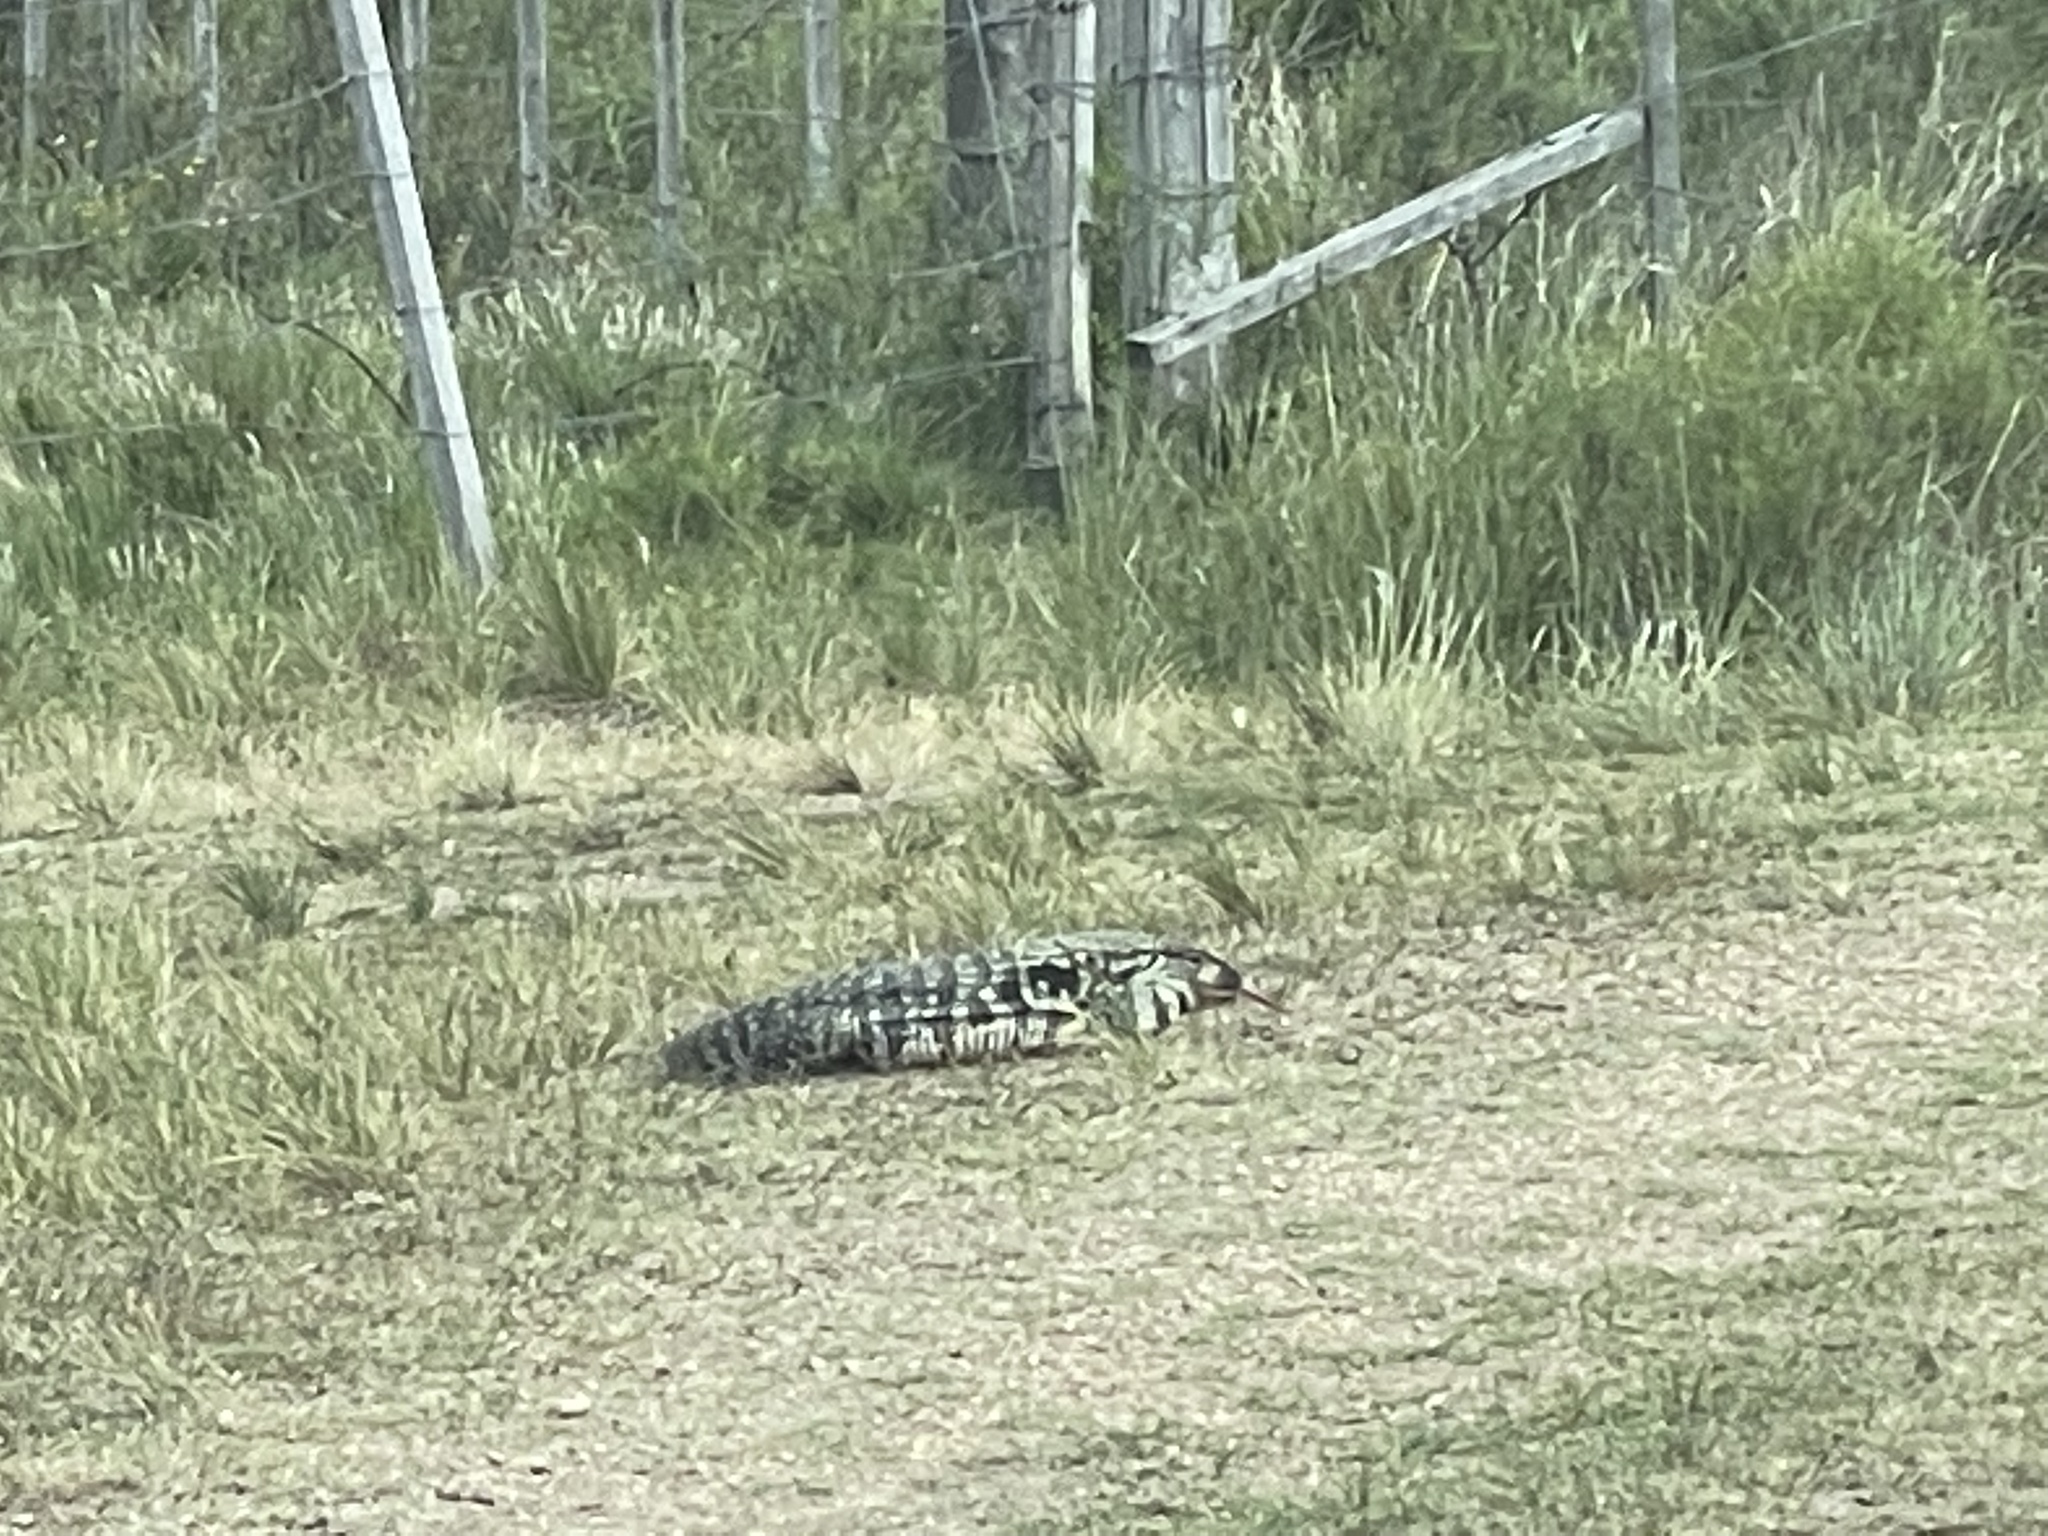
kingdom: Animalia
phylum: Chordata
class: Squamata
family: Teiidae
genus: Salvator
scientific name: Salvator merianae
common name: Argentine black and white tegu
